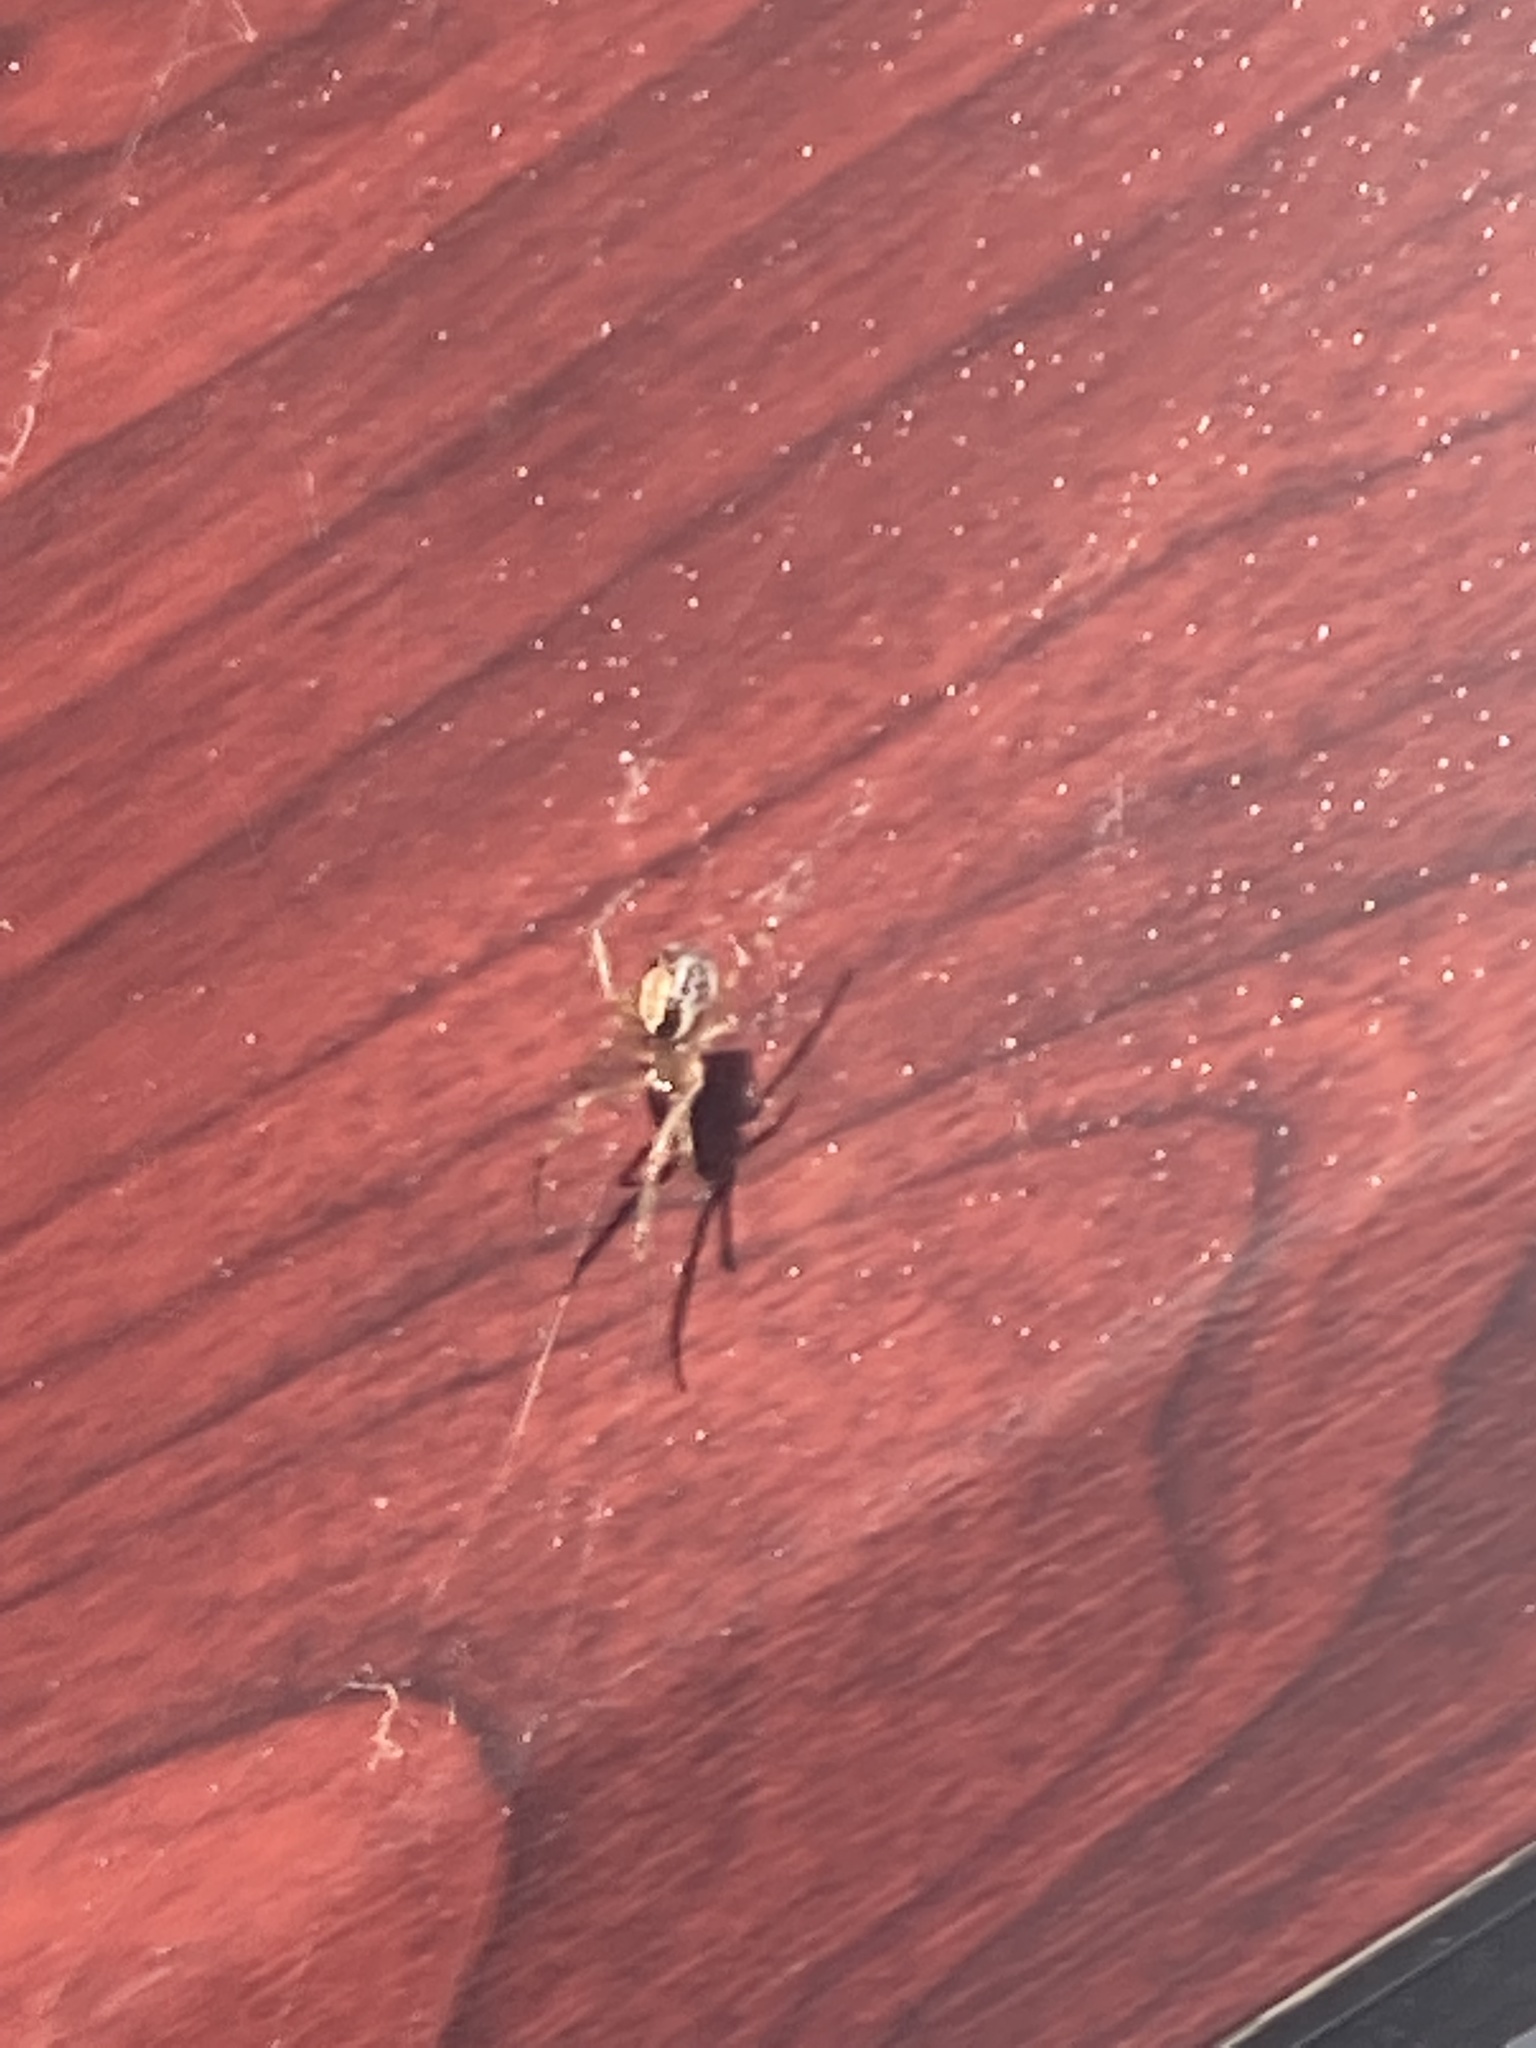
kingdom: Animalia
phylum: Arthropoda
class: Arachnida
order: Araneae
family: Theridiidae
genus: Steatoda
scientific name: Steatoda nobilis
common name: Cobweb weaver
